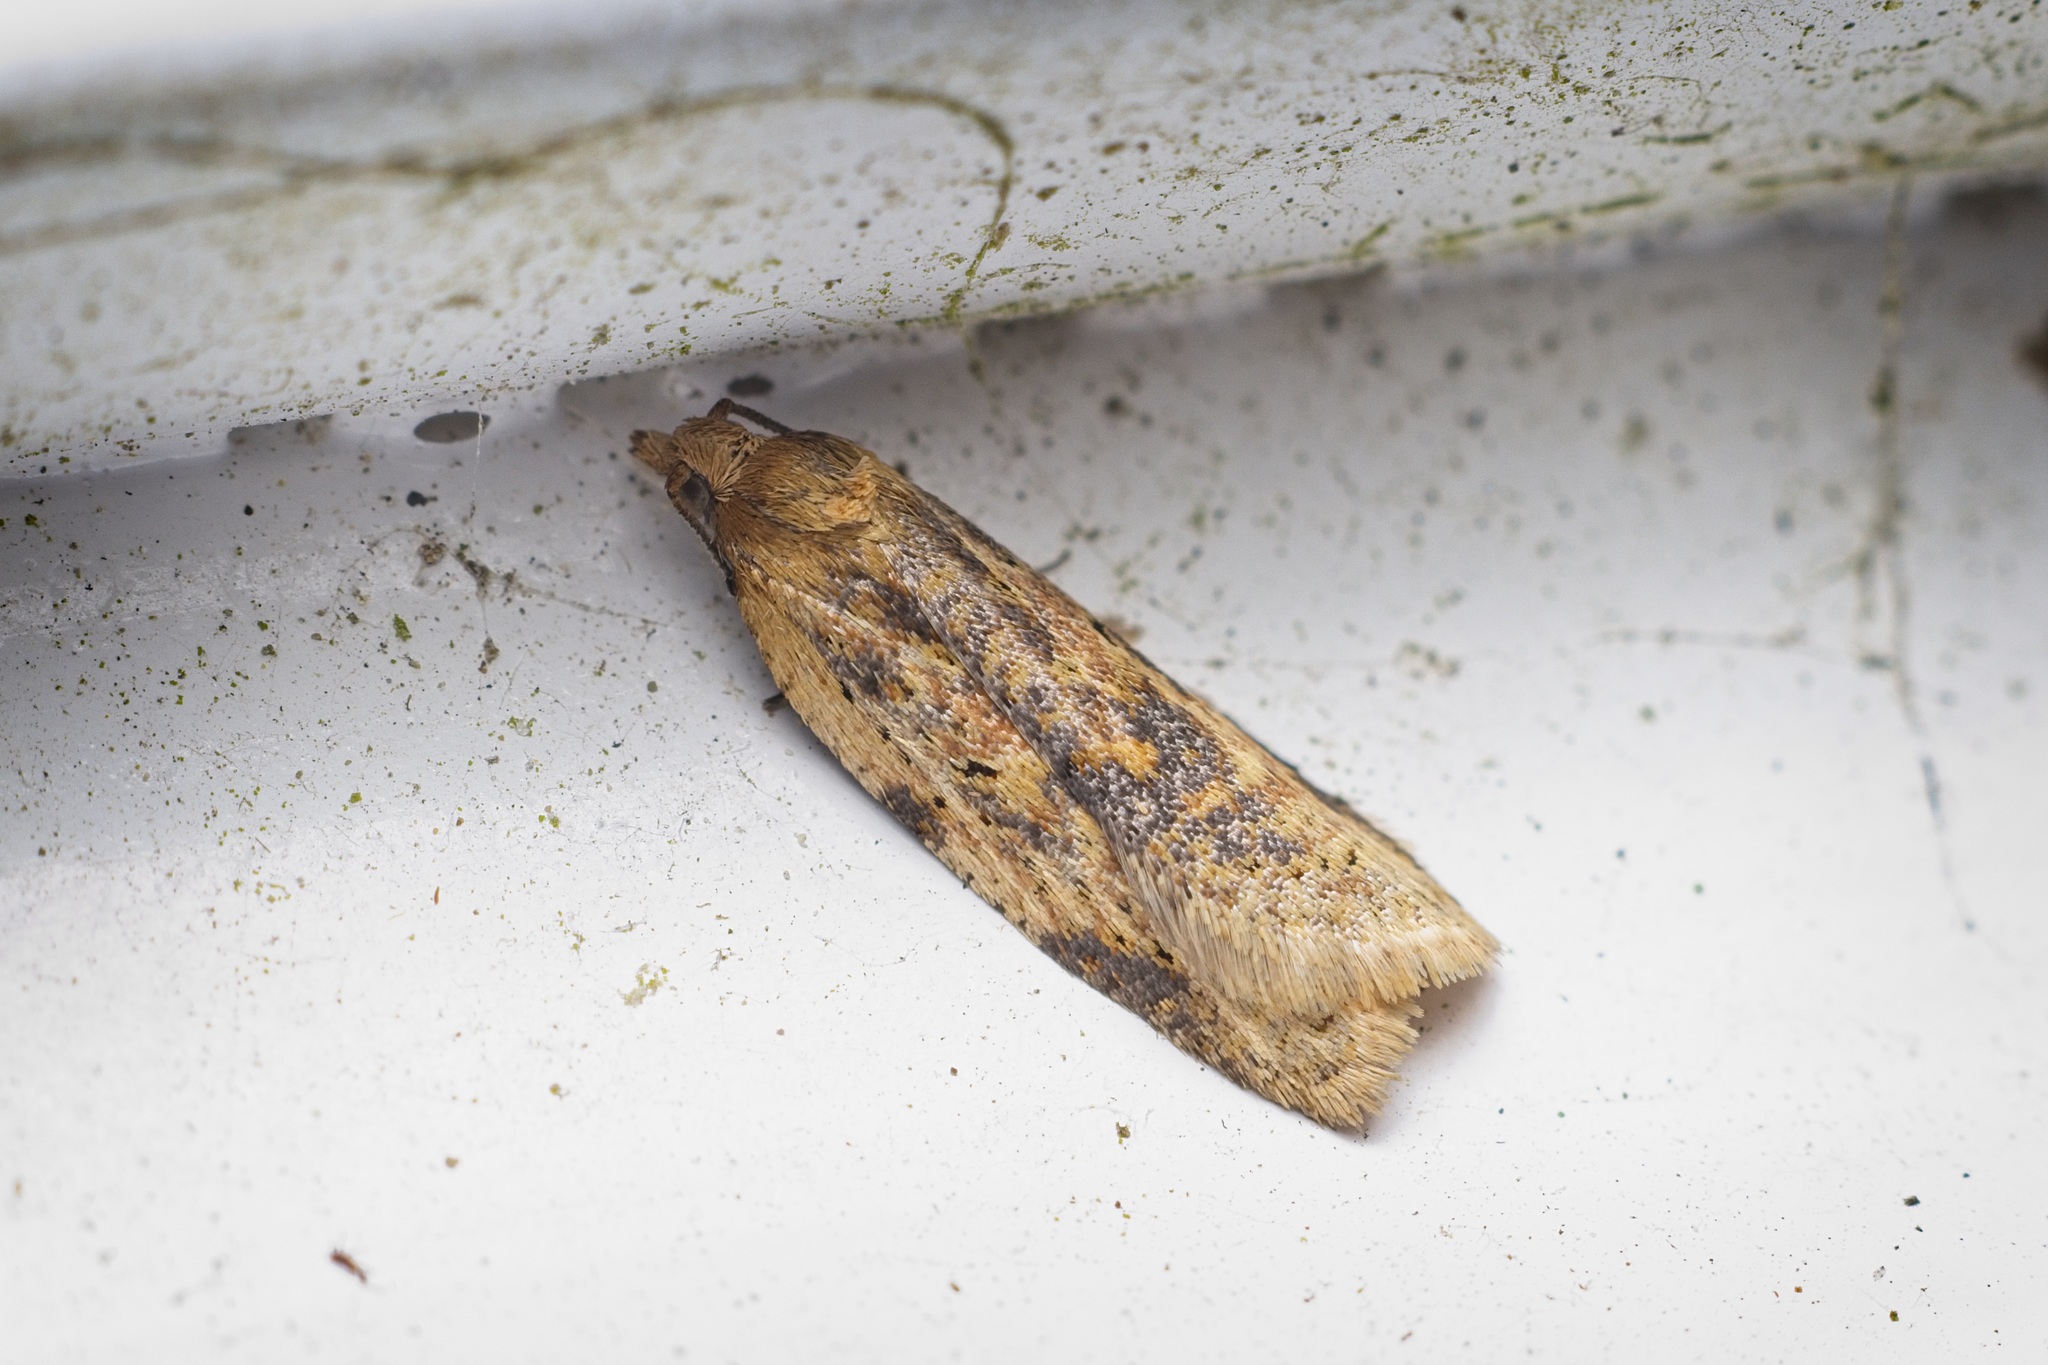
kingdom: Animalia
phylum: Arthropoda
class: Insecta
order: Lepidoptera
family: Tortricidae
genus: Clepsis
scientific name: Clepsis
